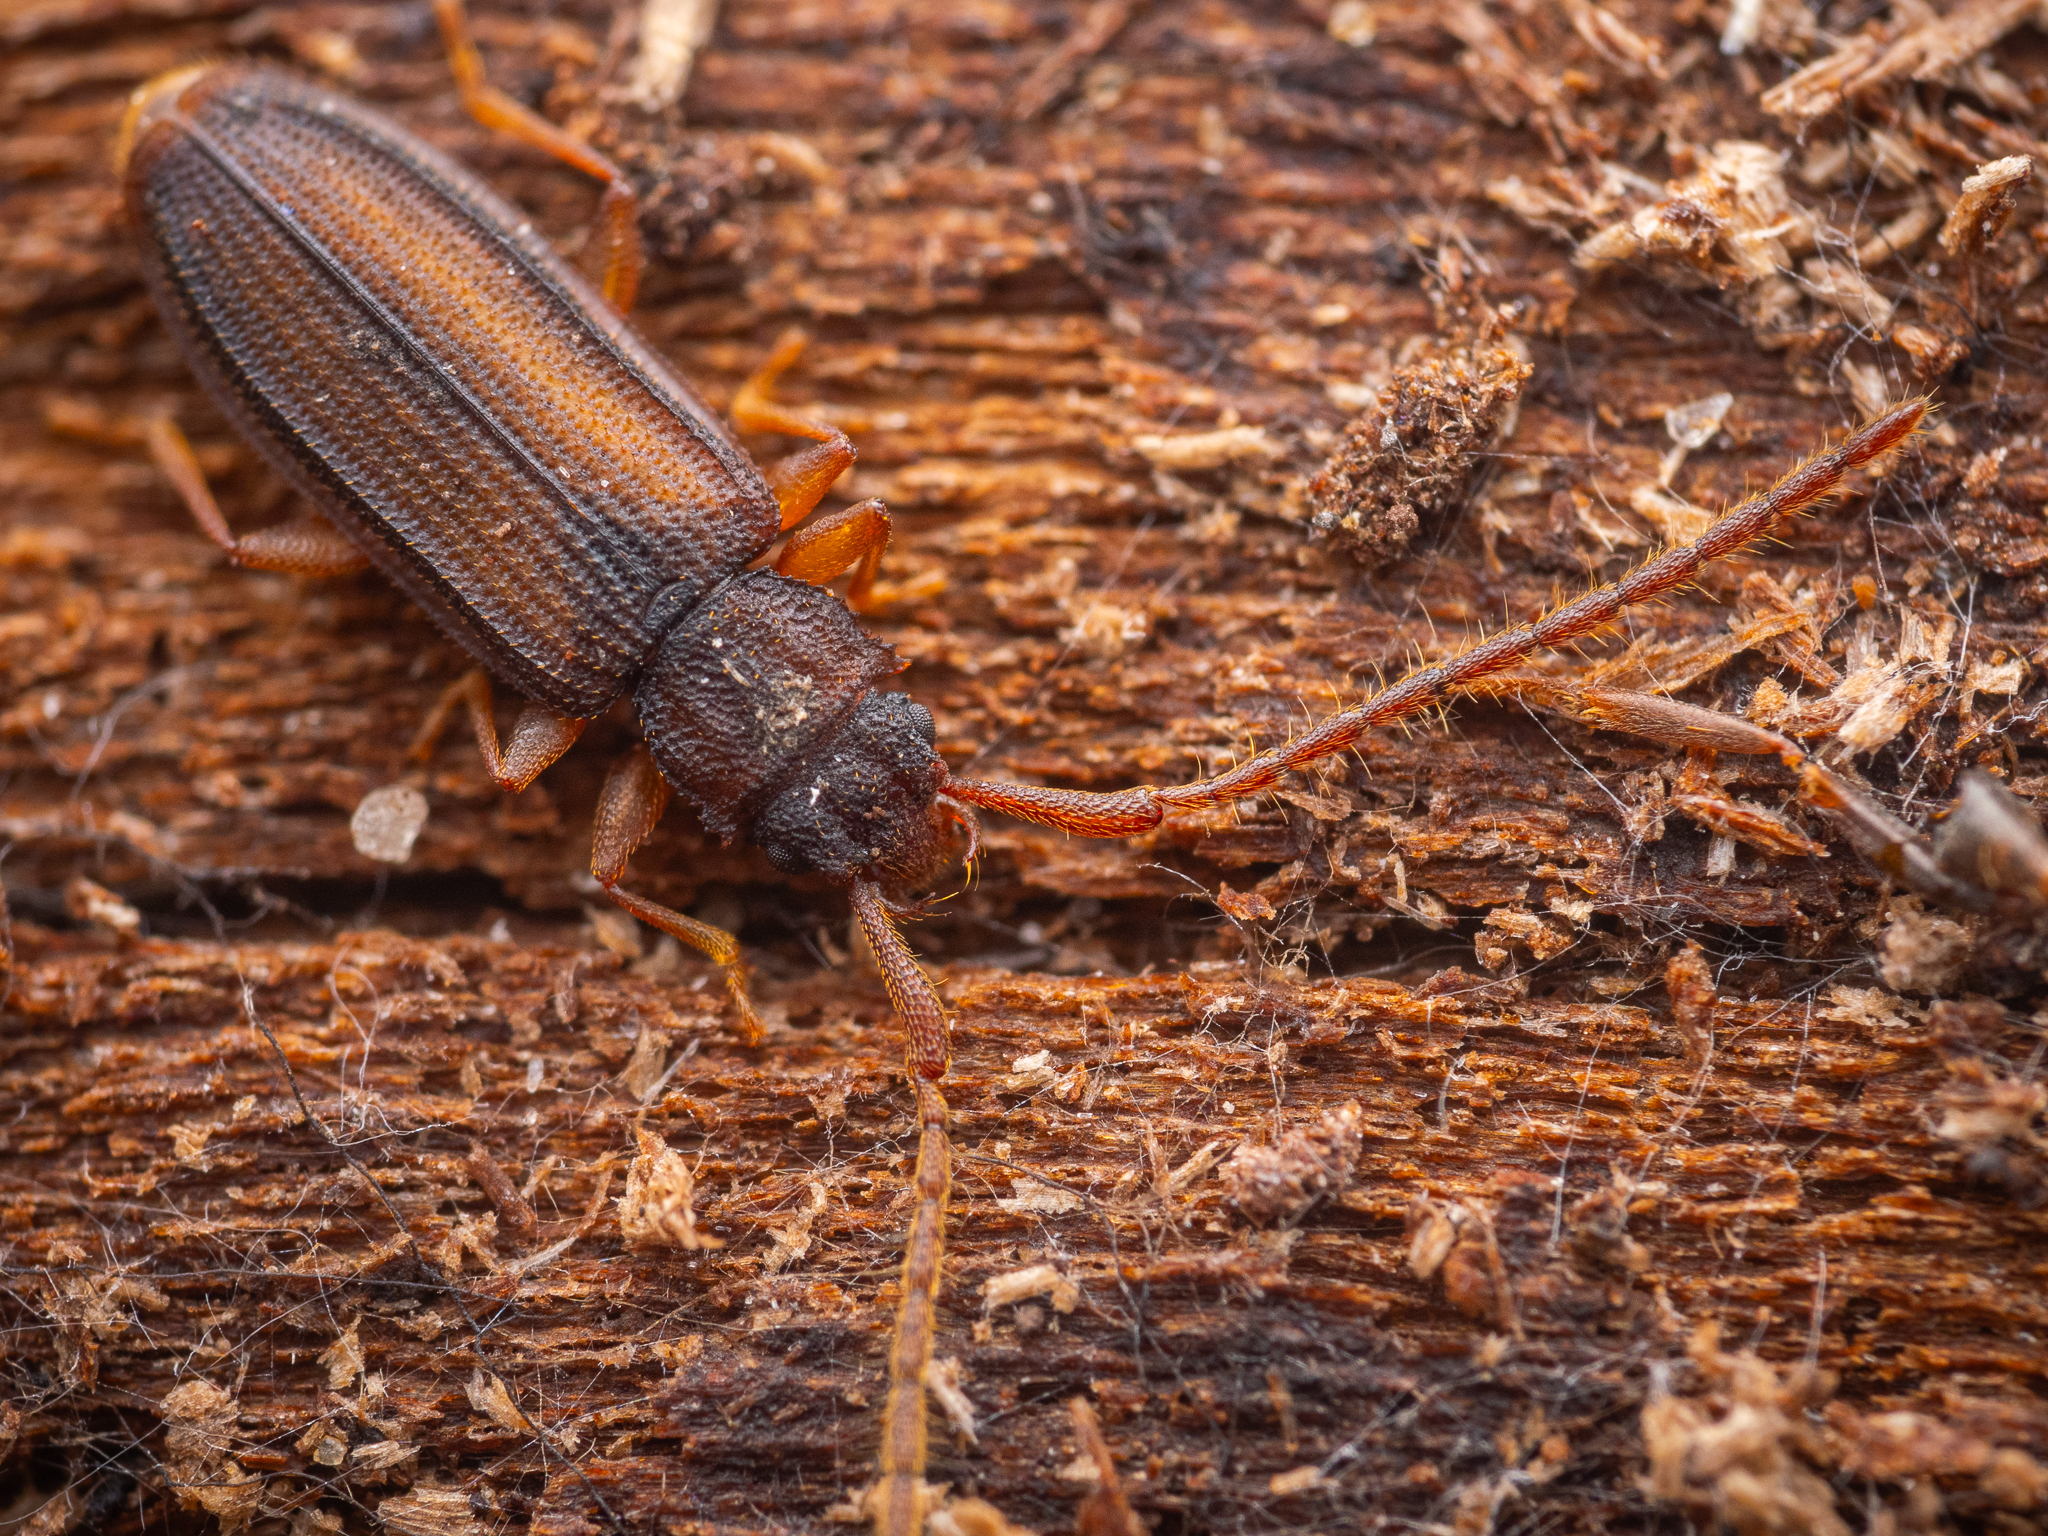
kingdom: Animalia
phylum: Arthropoda
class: Insecta
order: Coleoptera
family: Silvanidae
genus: Uleiota
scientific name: Uleiota planatus
